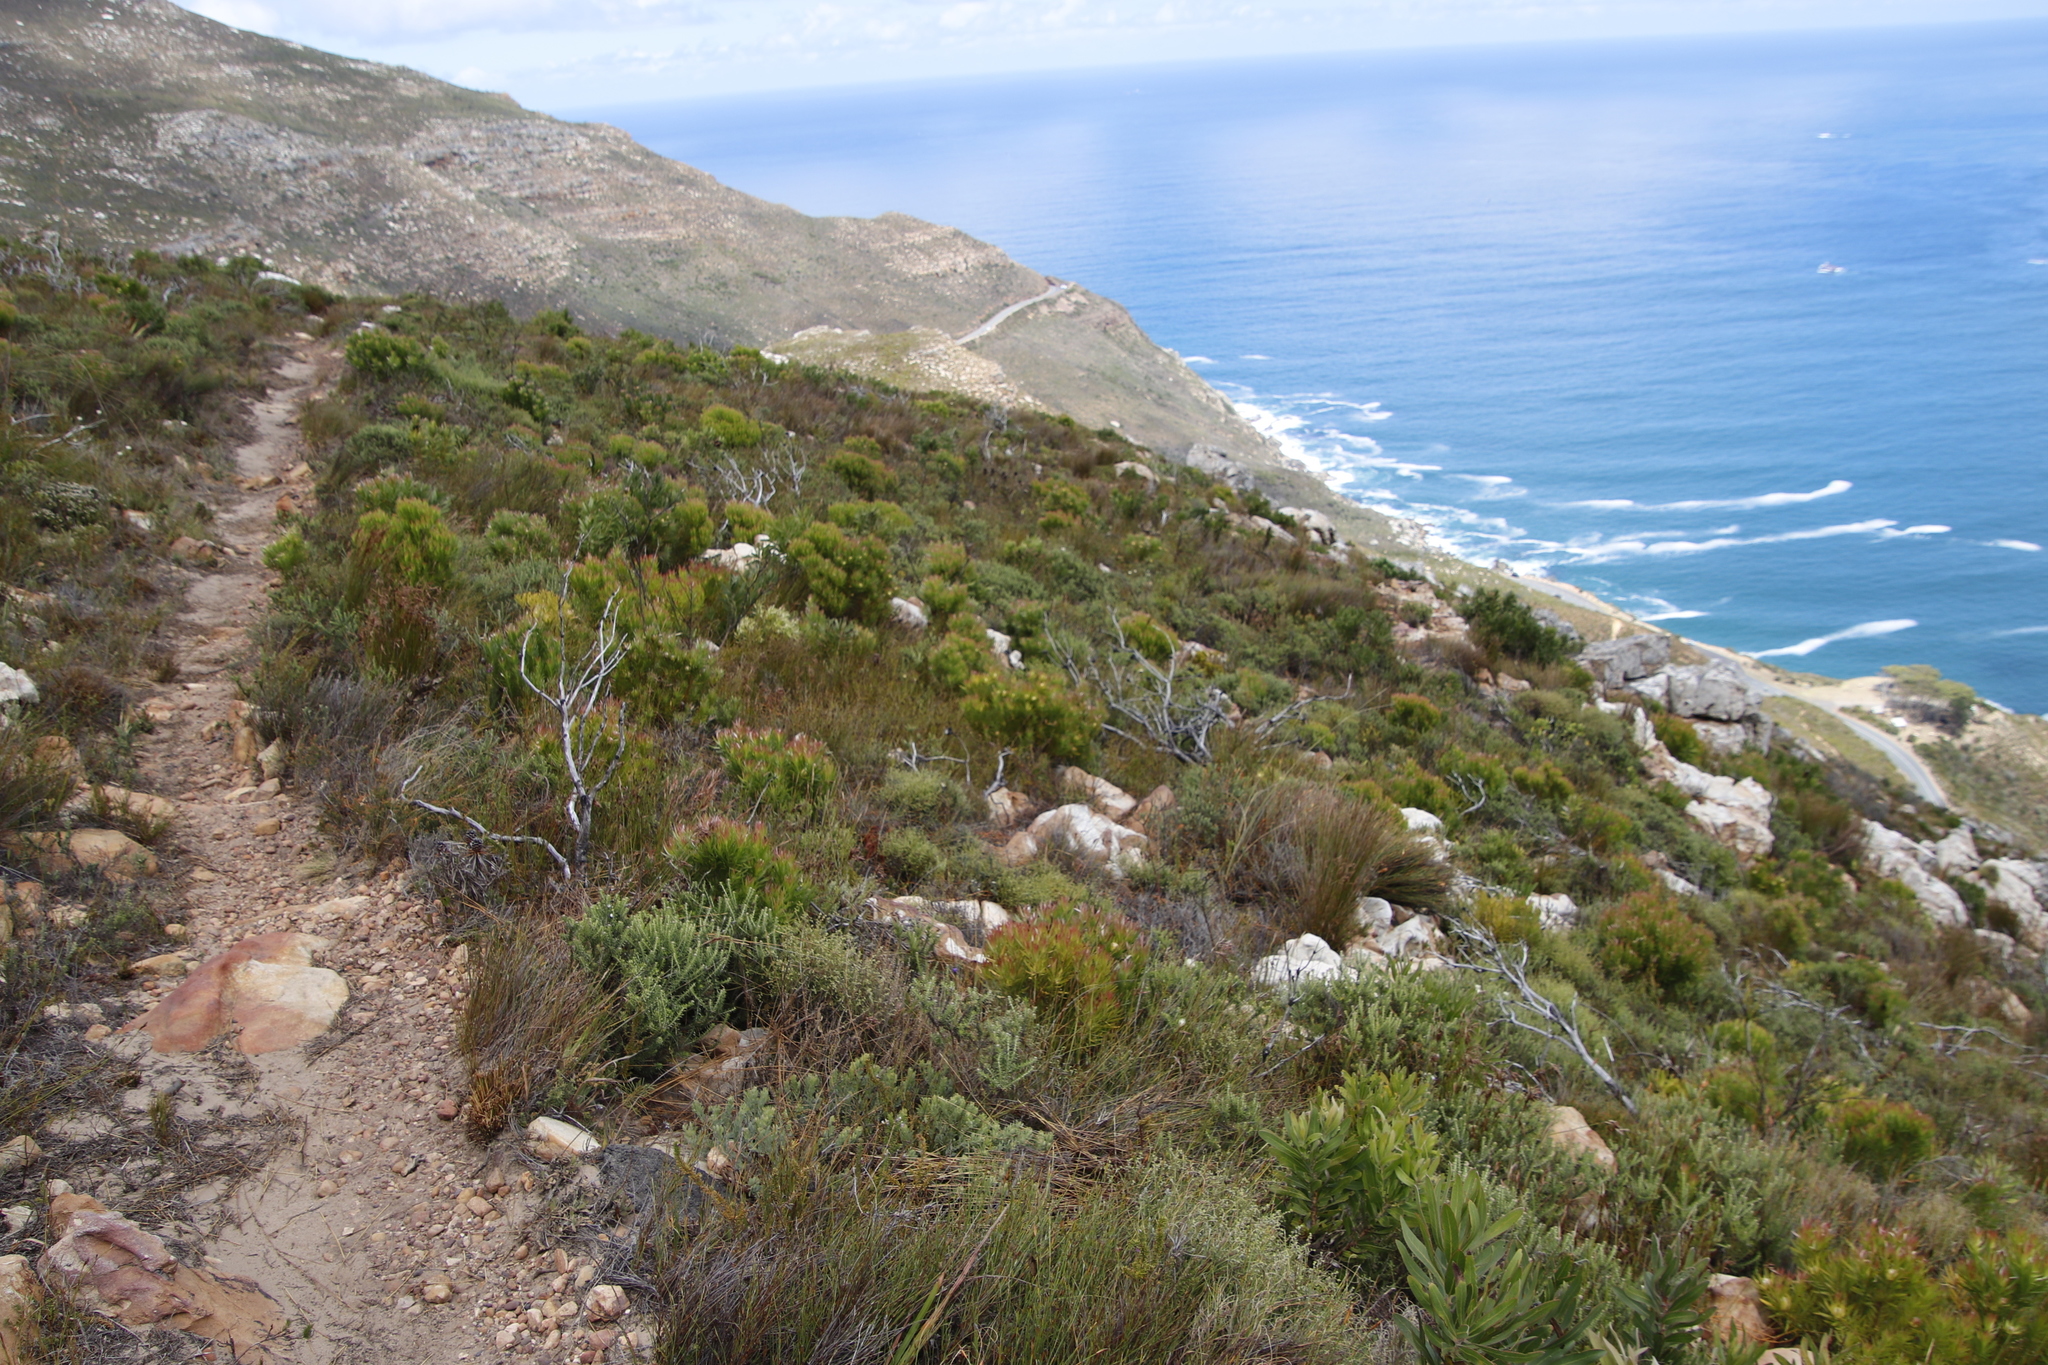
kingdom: Plantae
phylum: Tracheophyta
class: Magnoliopsida
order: Proteales
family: Proteaceae
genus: Leucadendron
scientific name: Leucadendron xanthoconus
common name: Sickle-leaf conebush
